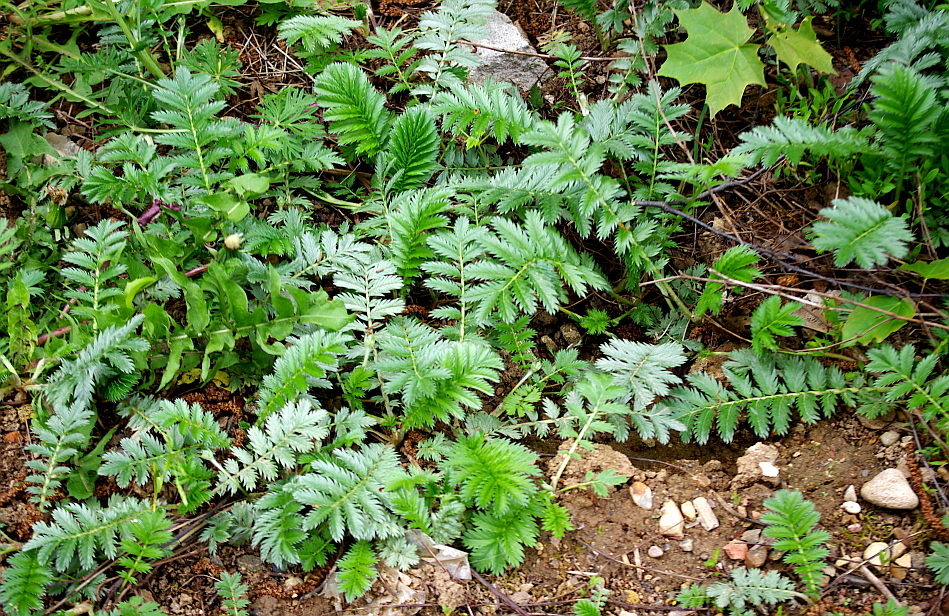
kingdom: Plantae
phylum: Tracheophyta
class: Magnoliopsida
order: Rosales
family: Rosaceae
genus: Argentina
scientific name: Argentina anserina
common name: Common silverweed
